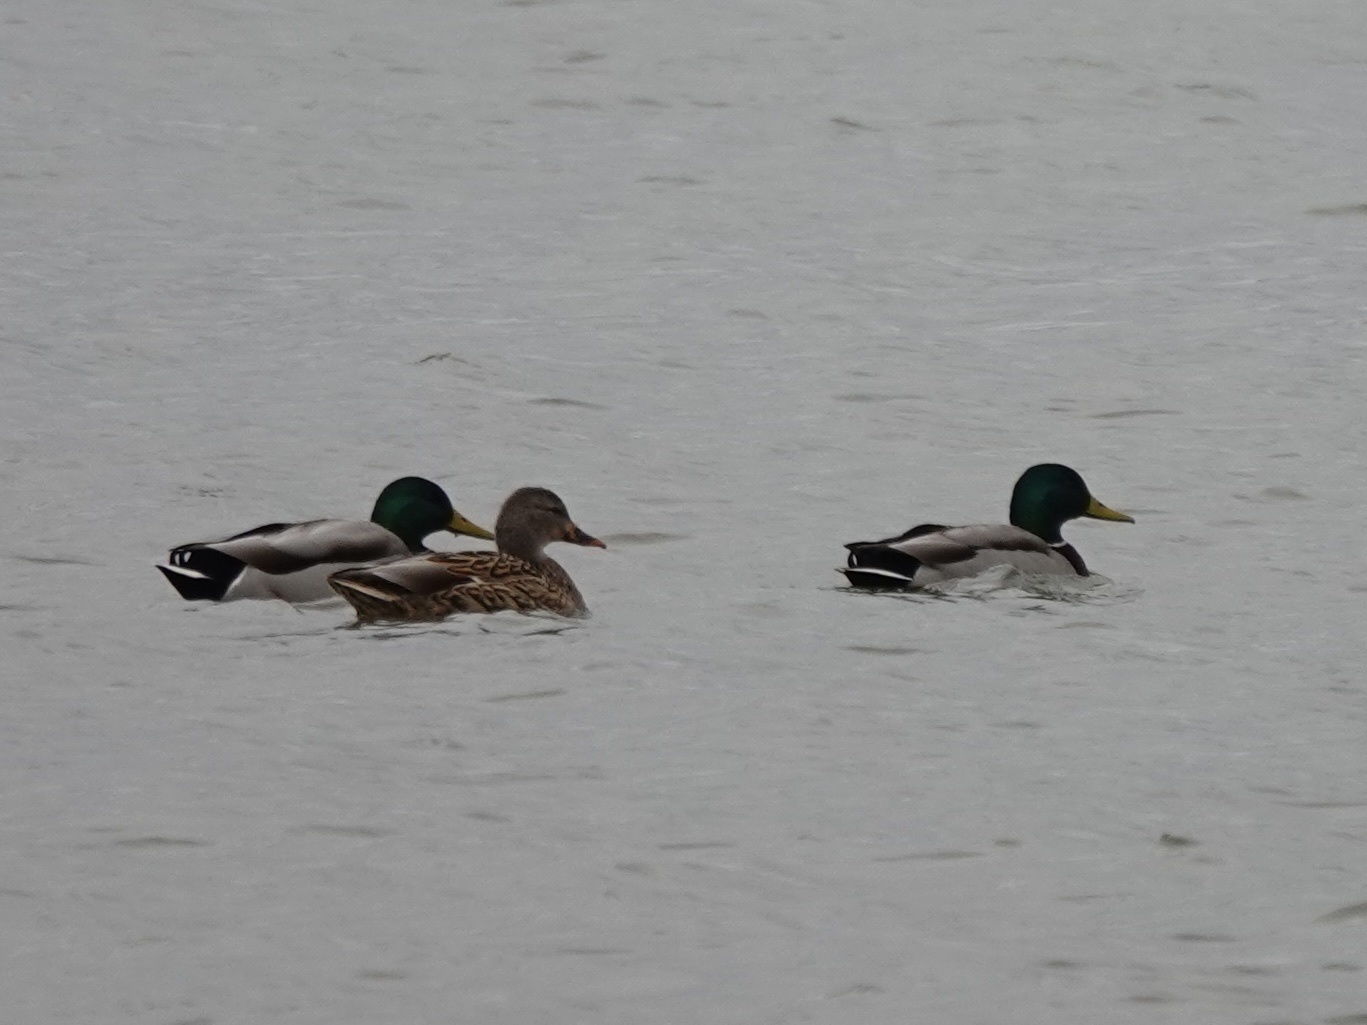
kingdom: Animalia
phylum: Chordata
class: Aves
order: Anseriformes
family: Anatidae
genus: Anas
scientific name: Anas platyrhynchos
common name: Mallard
